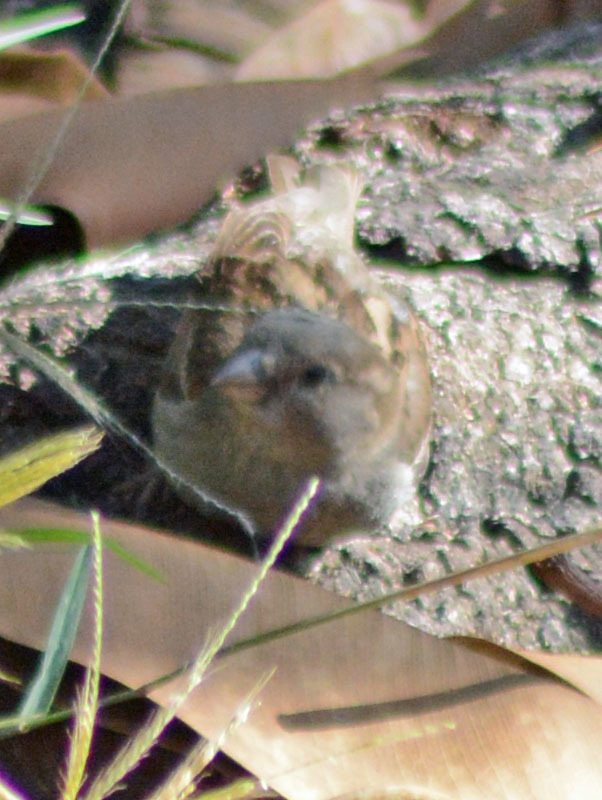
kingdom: Animalia
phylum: Chordata
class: Aves
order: Passeriformes
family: Passeridae
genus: Passer
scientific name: Passer domesticus
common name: House sparrow
